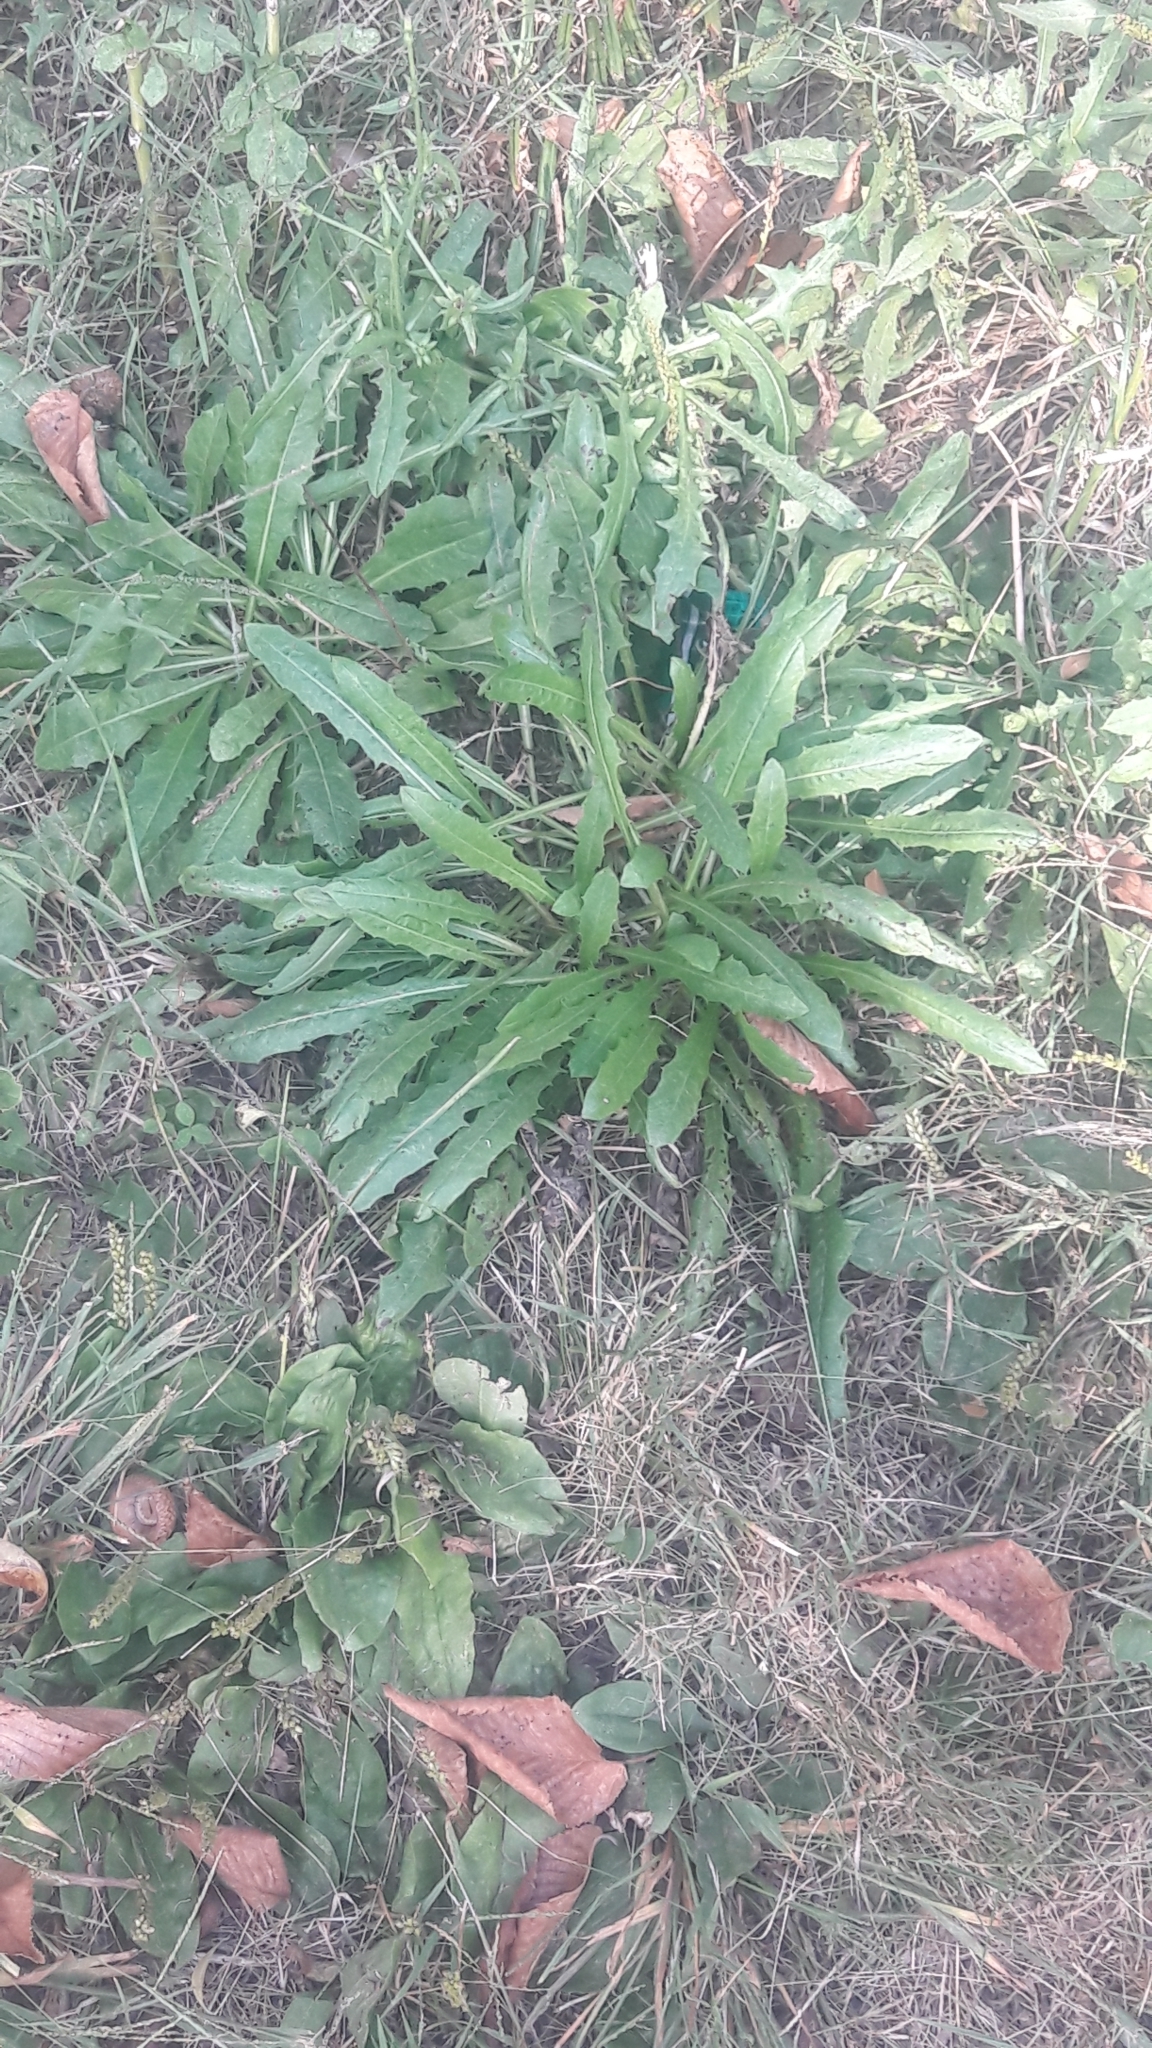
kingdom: Plantae
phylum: Tracheophyta
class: Magnoliopsida
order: Asterales
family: Asteraceae
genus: Cichorium
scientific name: Cichorium intybus
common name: Chicory
